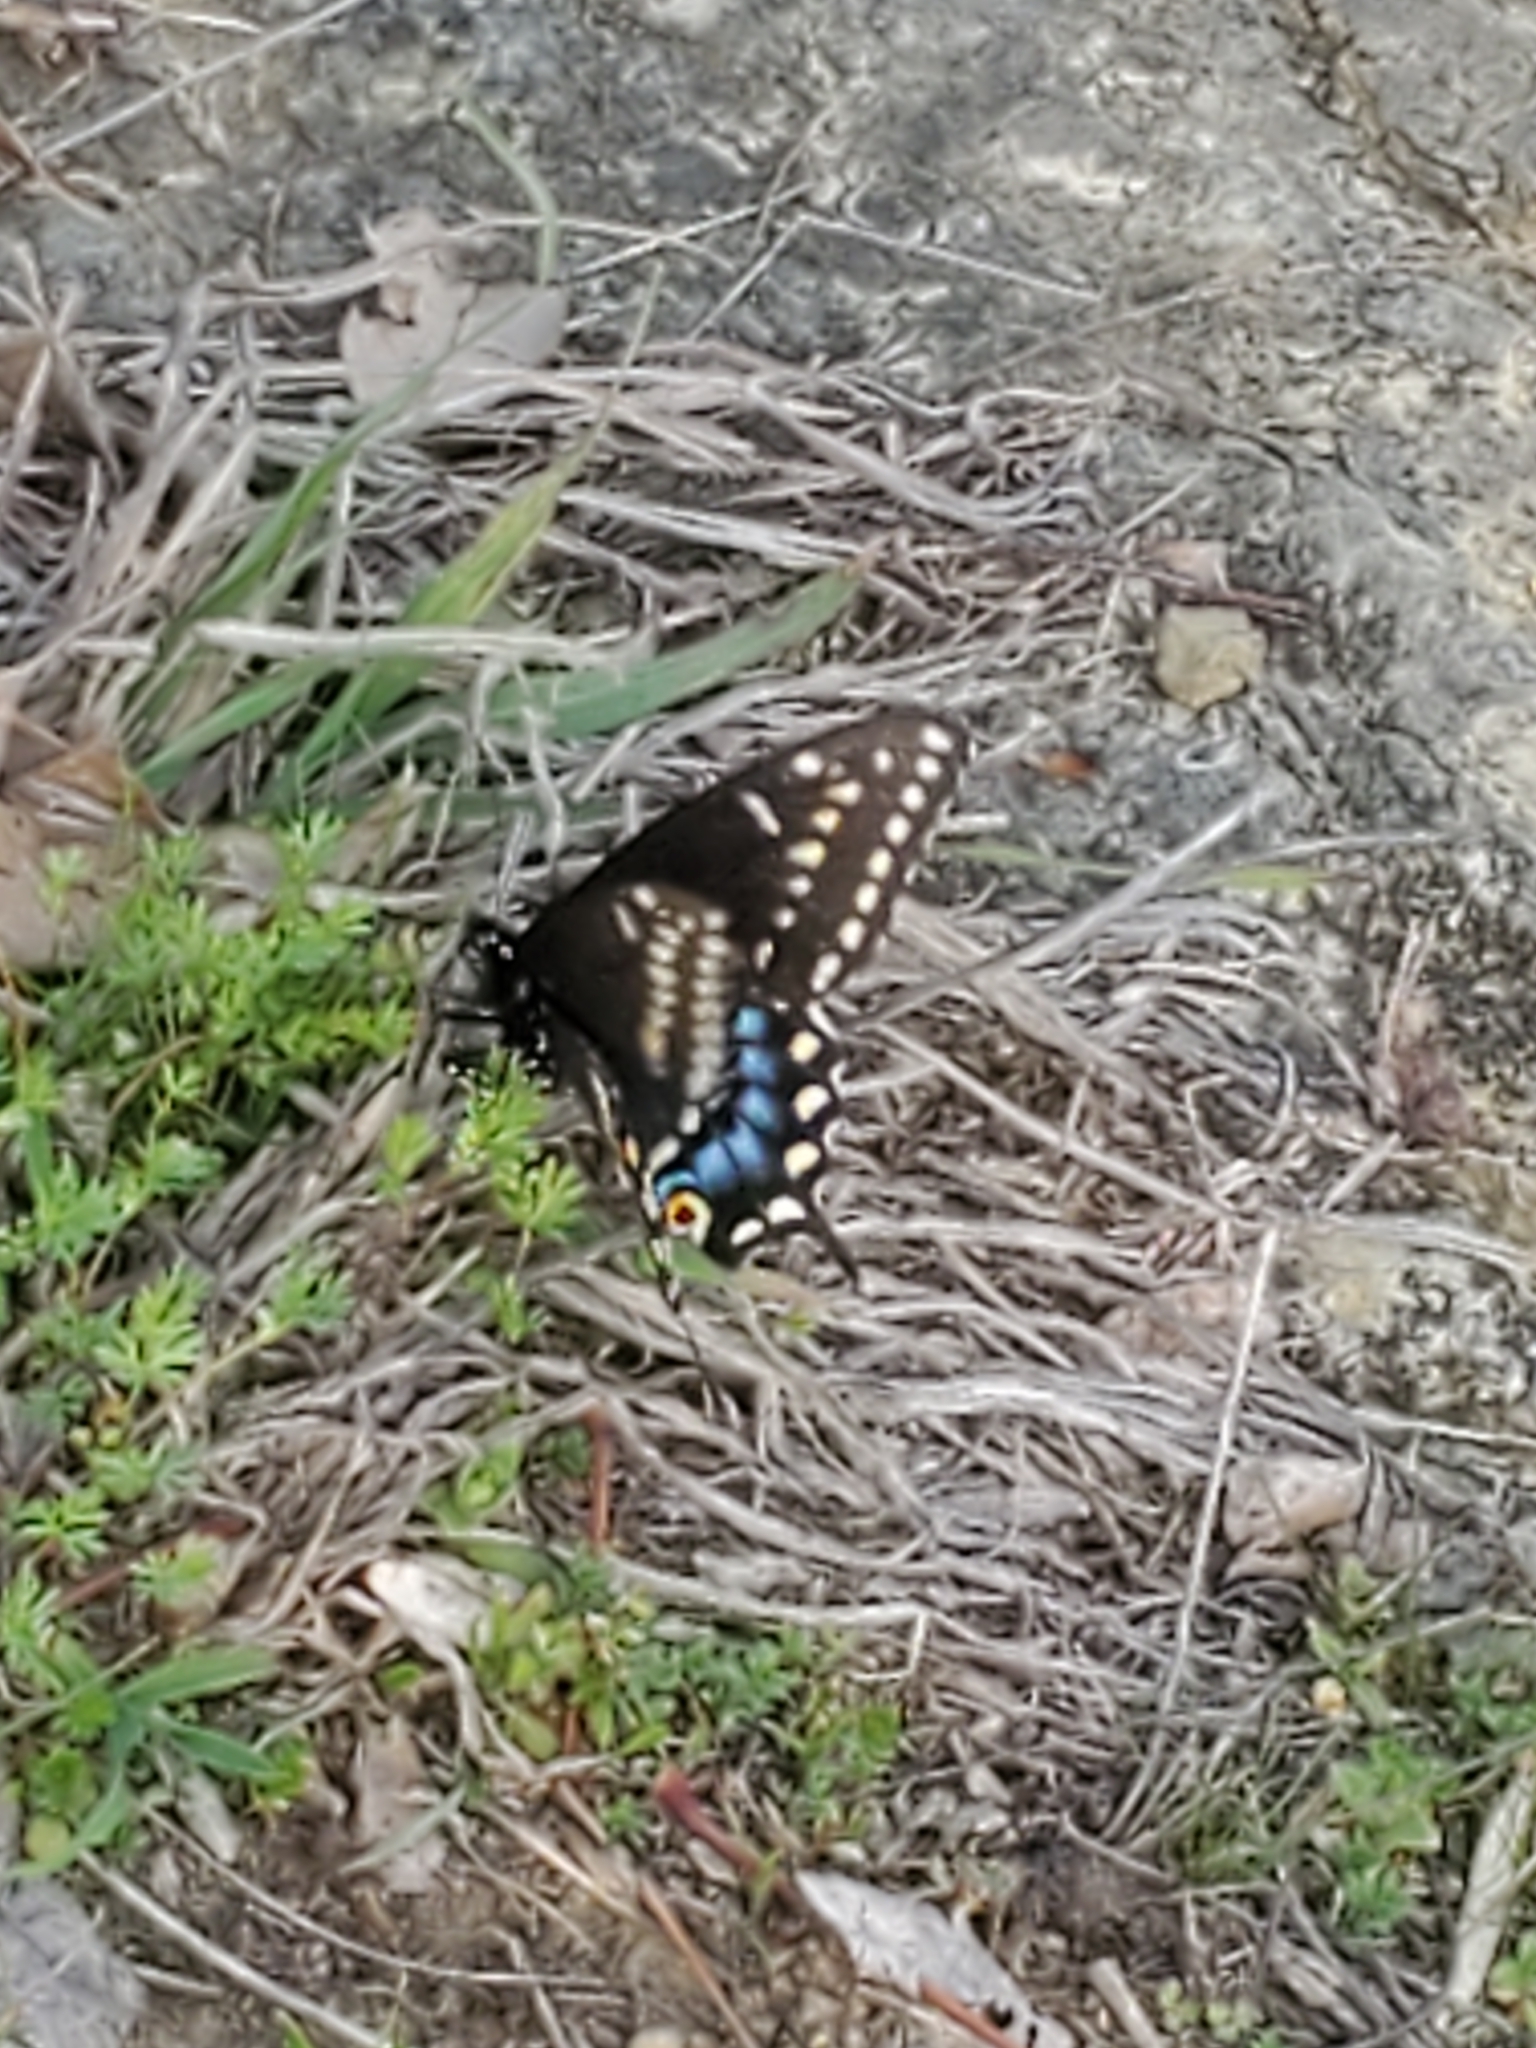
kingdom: Animalia
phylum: Arthropoda
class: Insecta
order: Lepidoptera
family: Papilionidae
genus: Papilio
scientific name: Papilio polyxenes
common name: Black swallowtail
